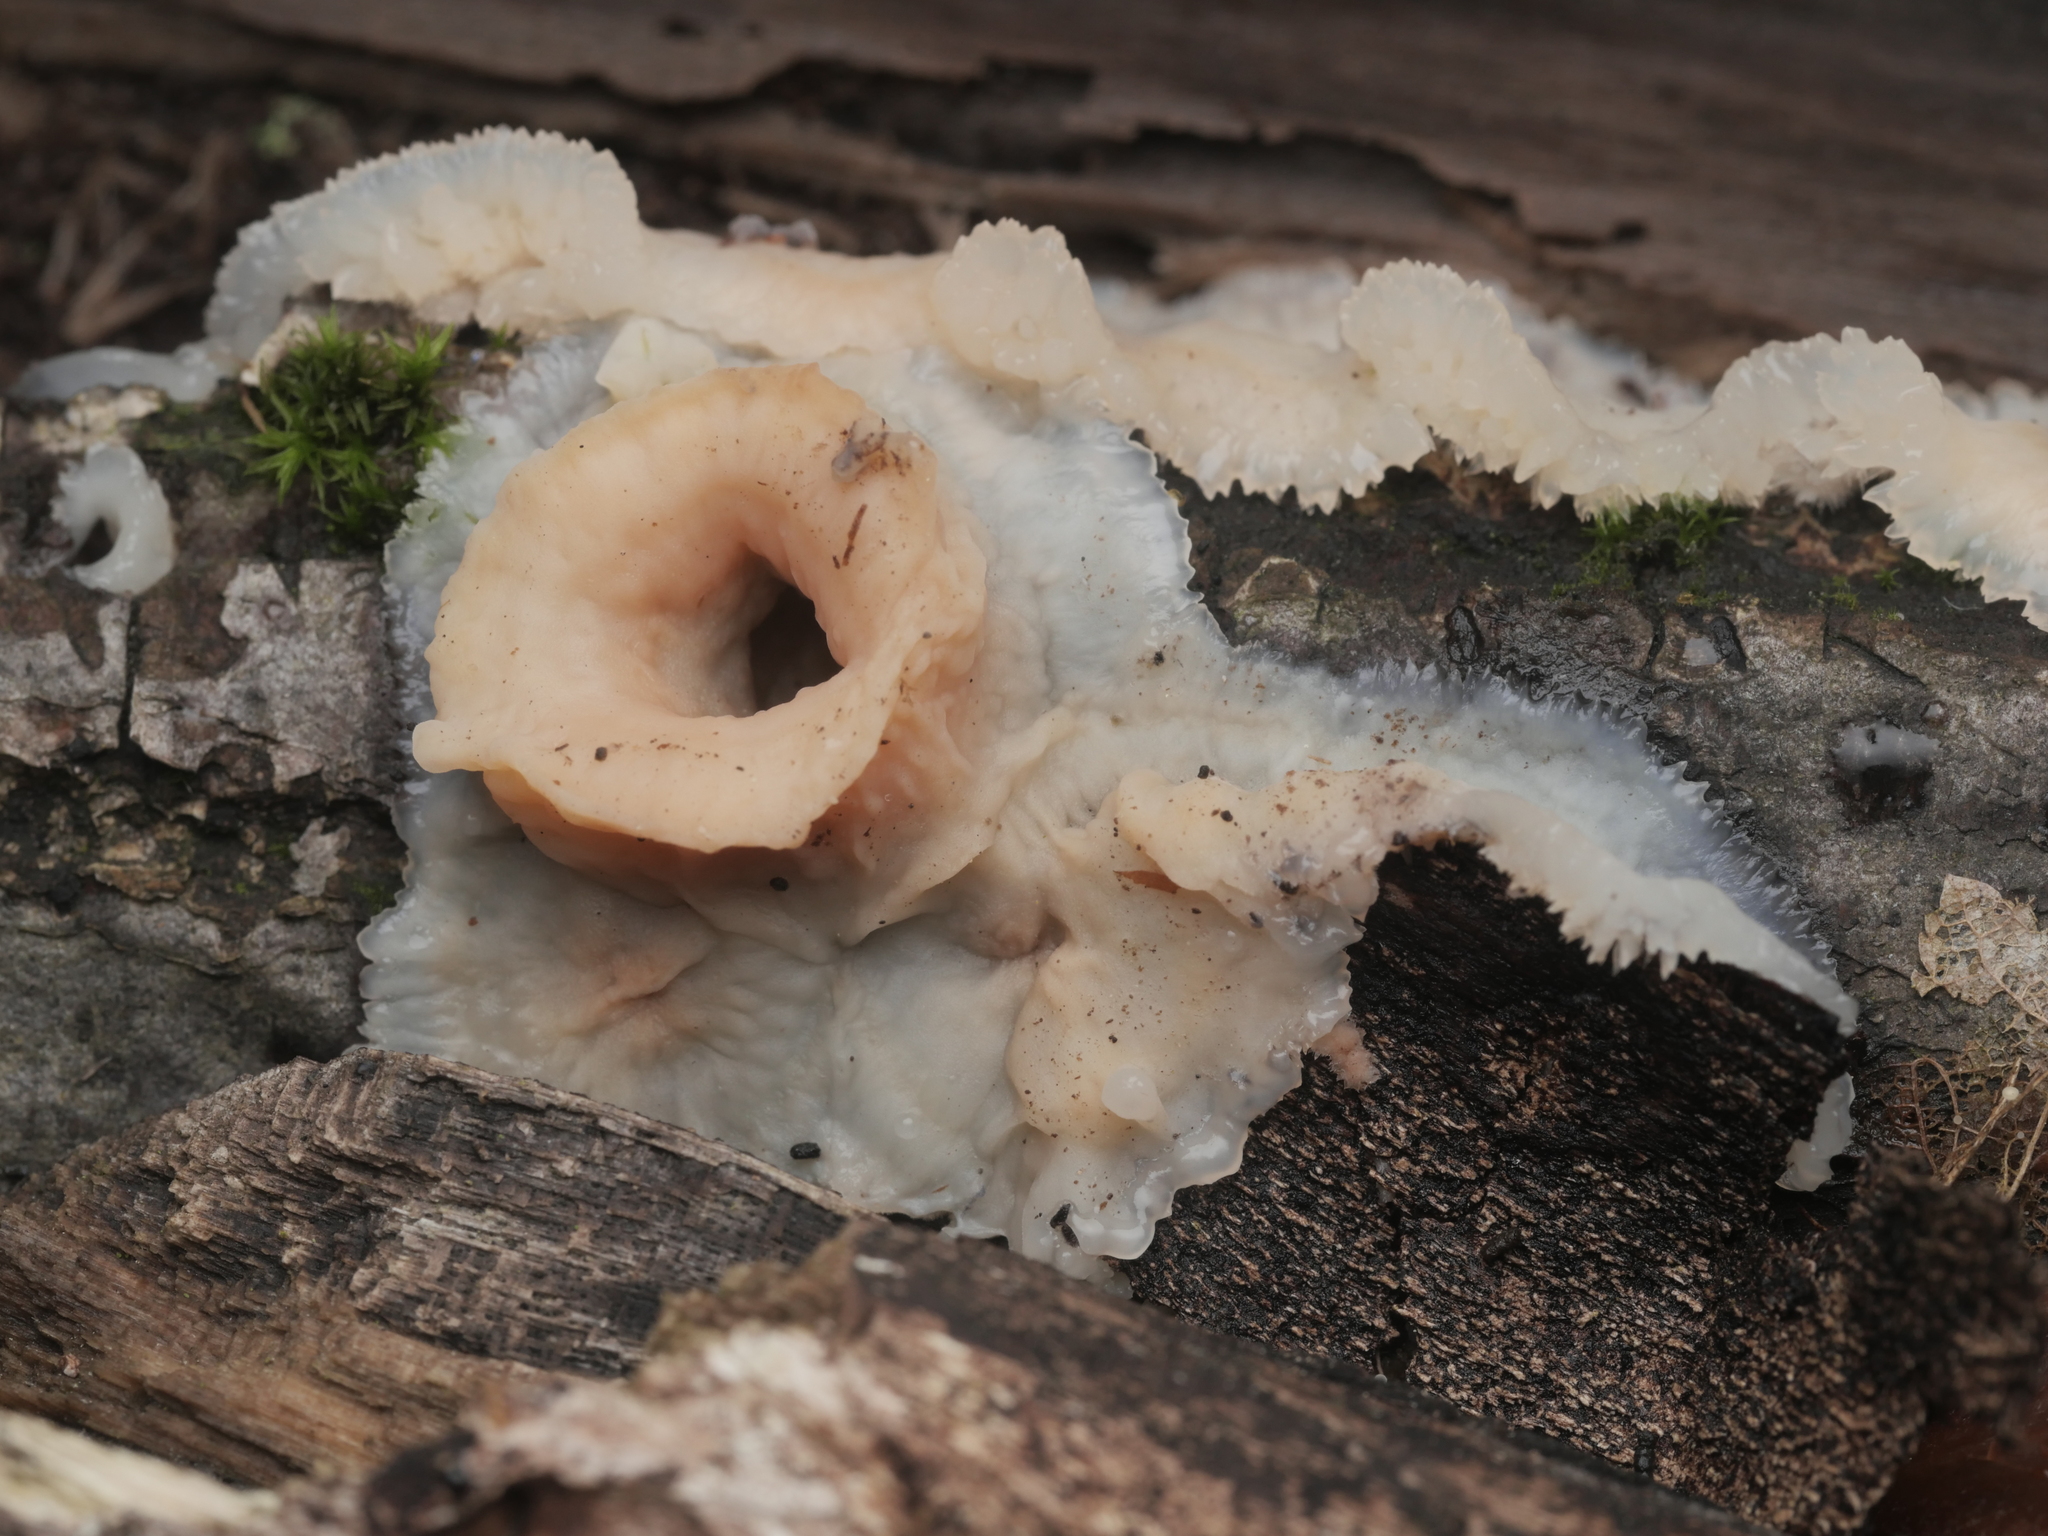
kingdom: Fungi
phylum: Basidiomycota
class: Agaricomycetes
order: Polyporales
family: Meruliaceae
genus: Phlebia
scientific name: Phlebia tremellosa
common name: Jelly rot
